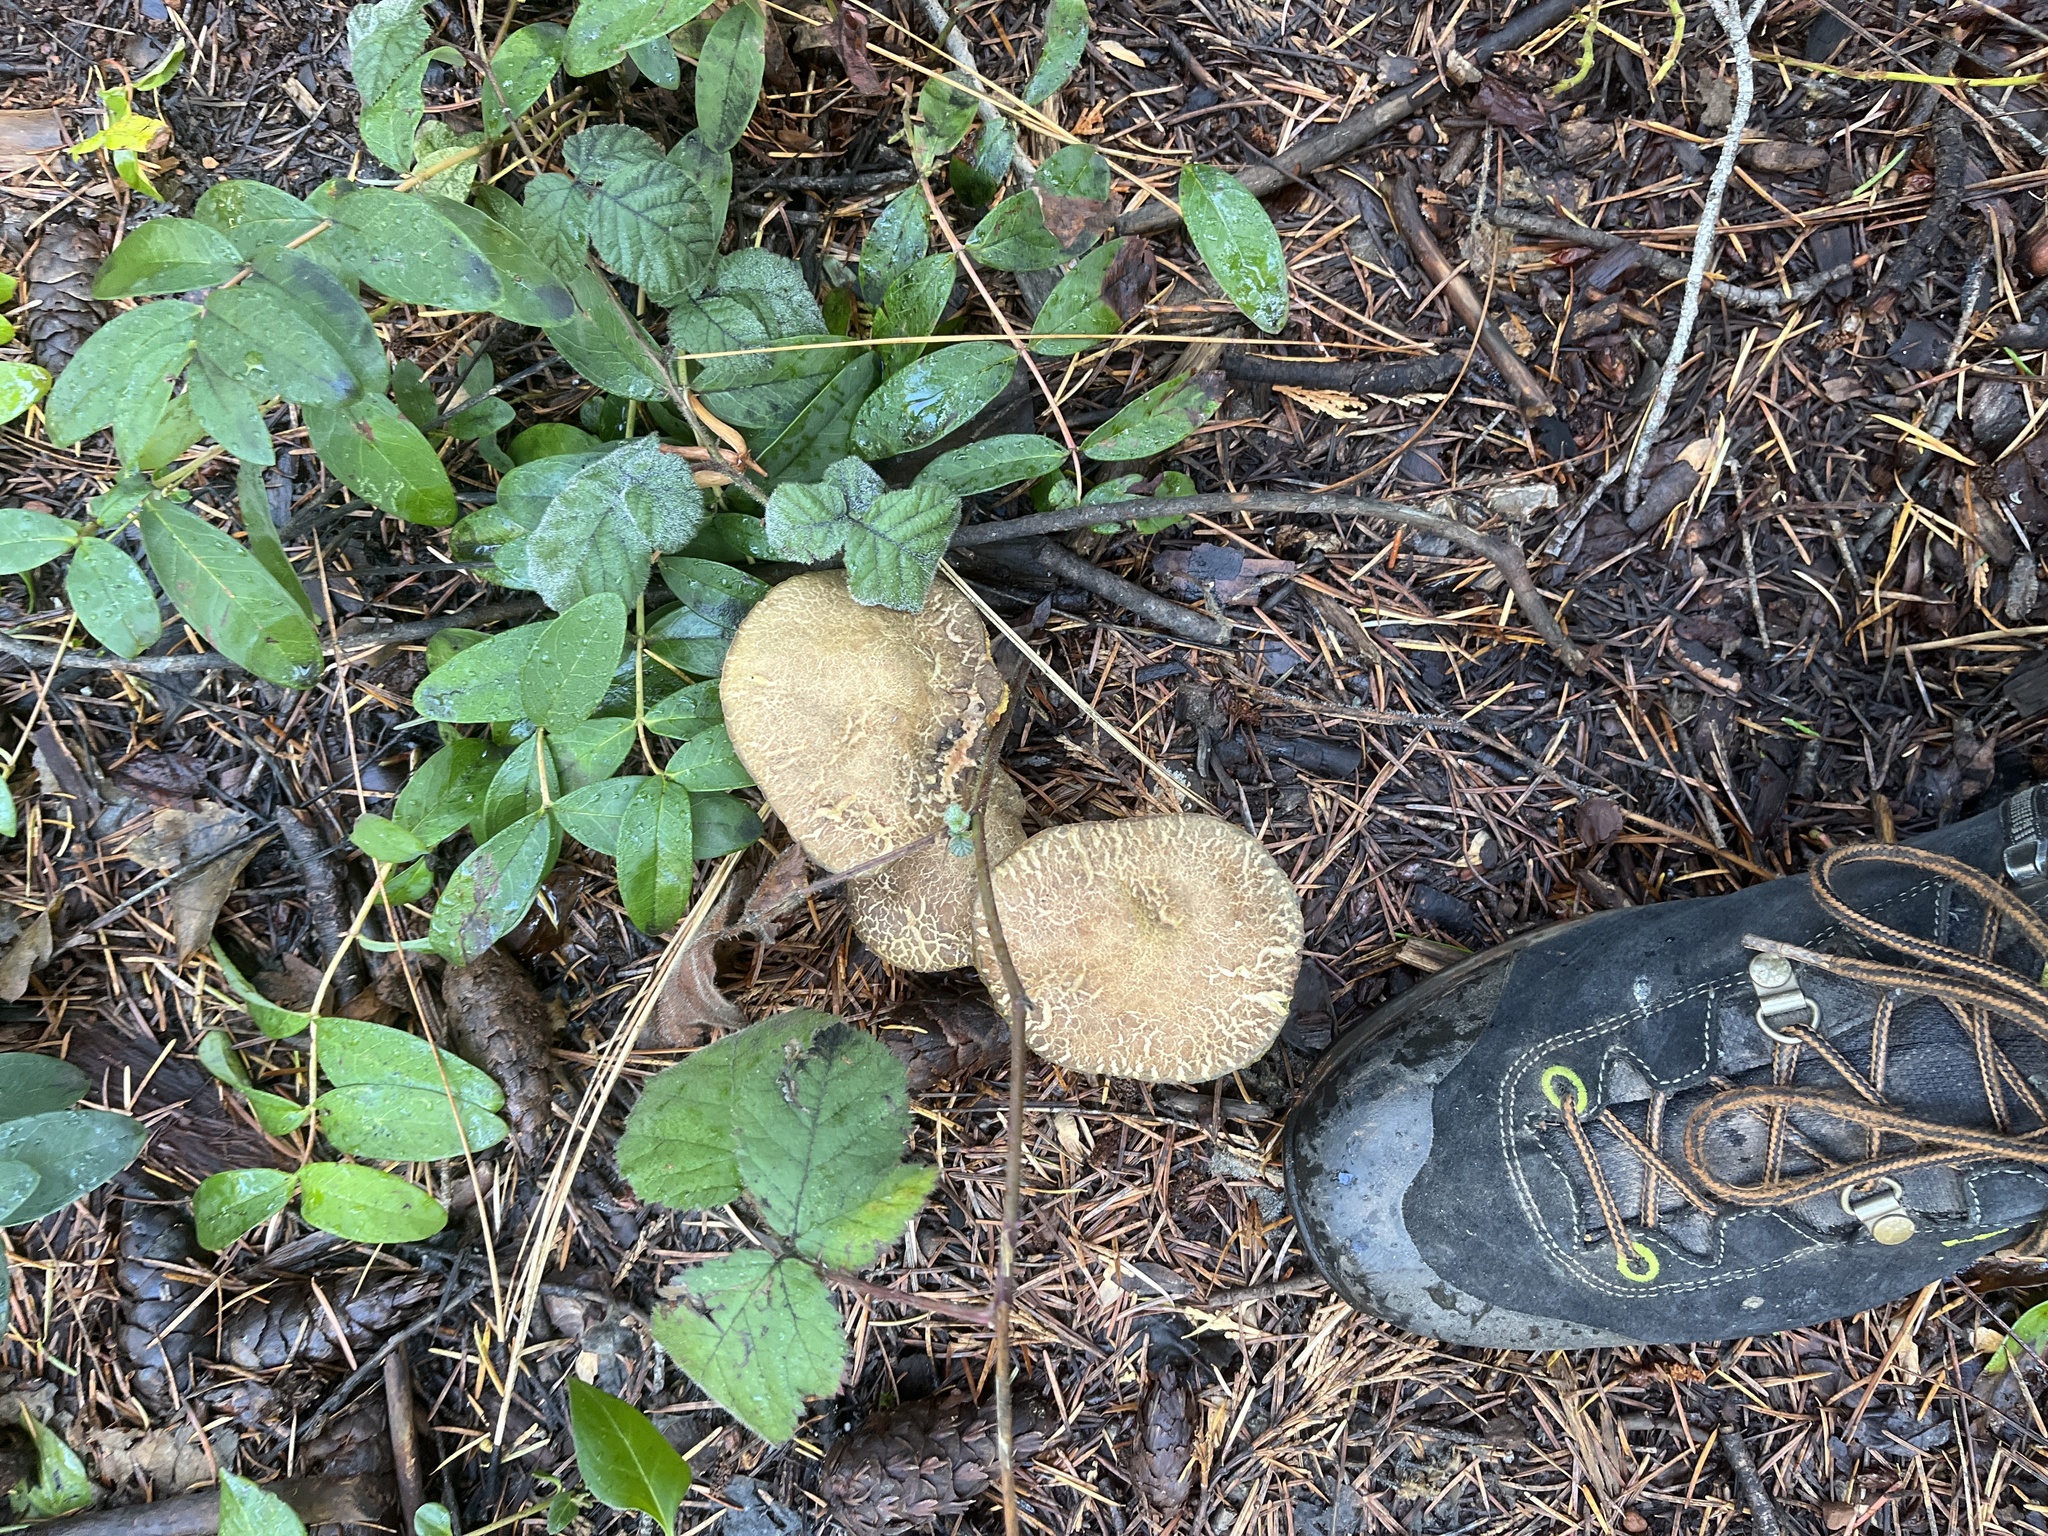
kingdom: Fungi
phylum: Basidiomycota
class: Agaricomycetes
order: Boletales
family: Boletaceae
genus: Xerocomellus
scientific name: Xerocomellus diffractus
